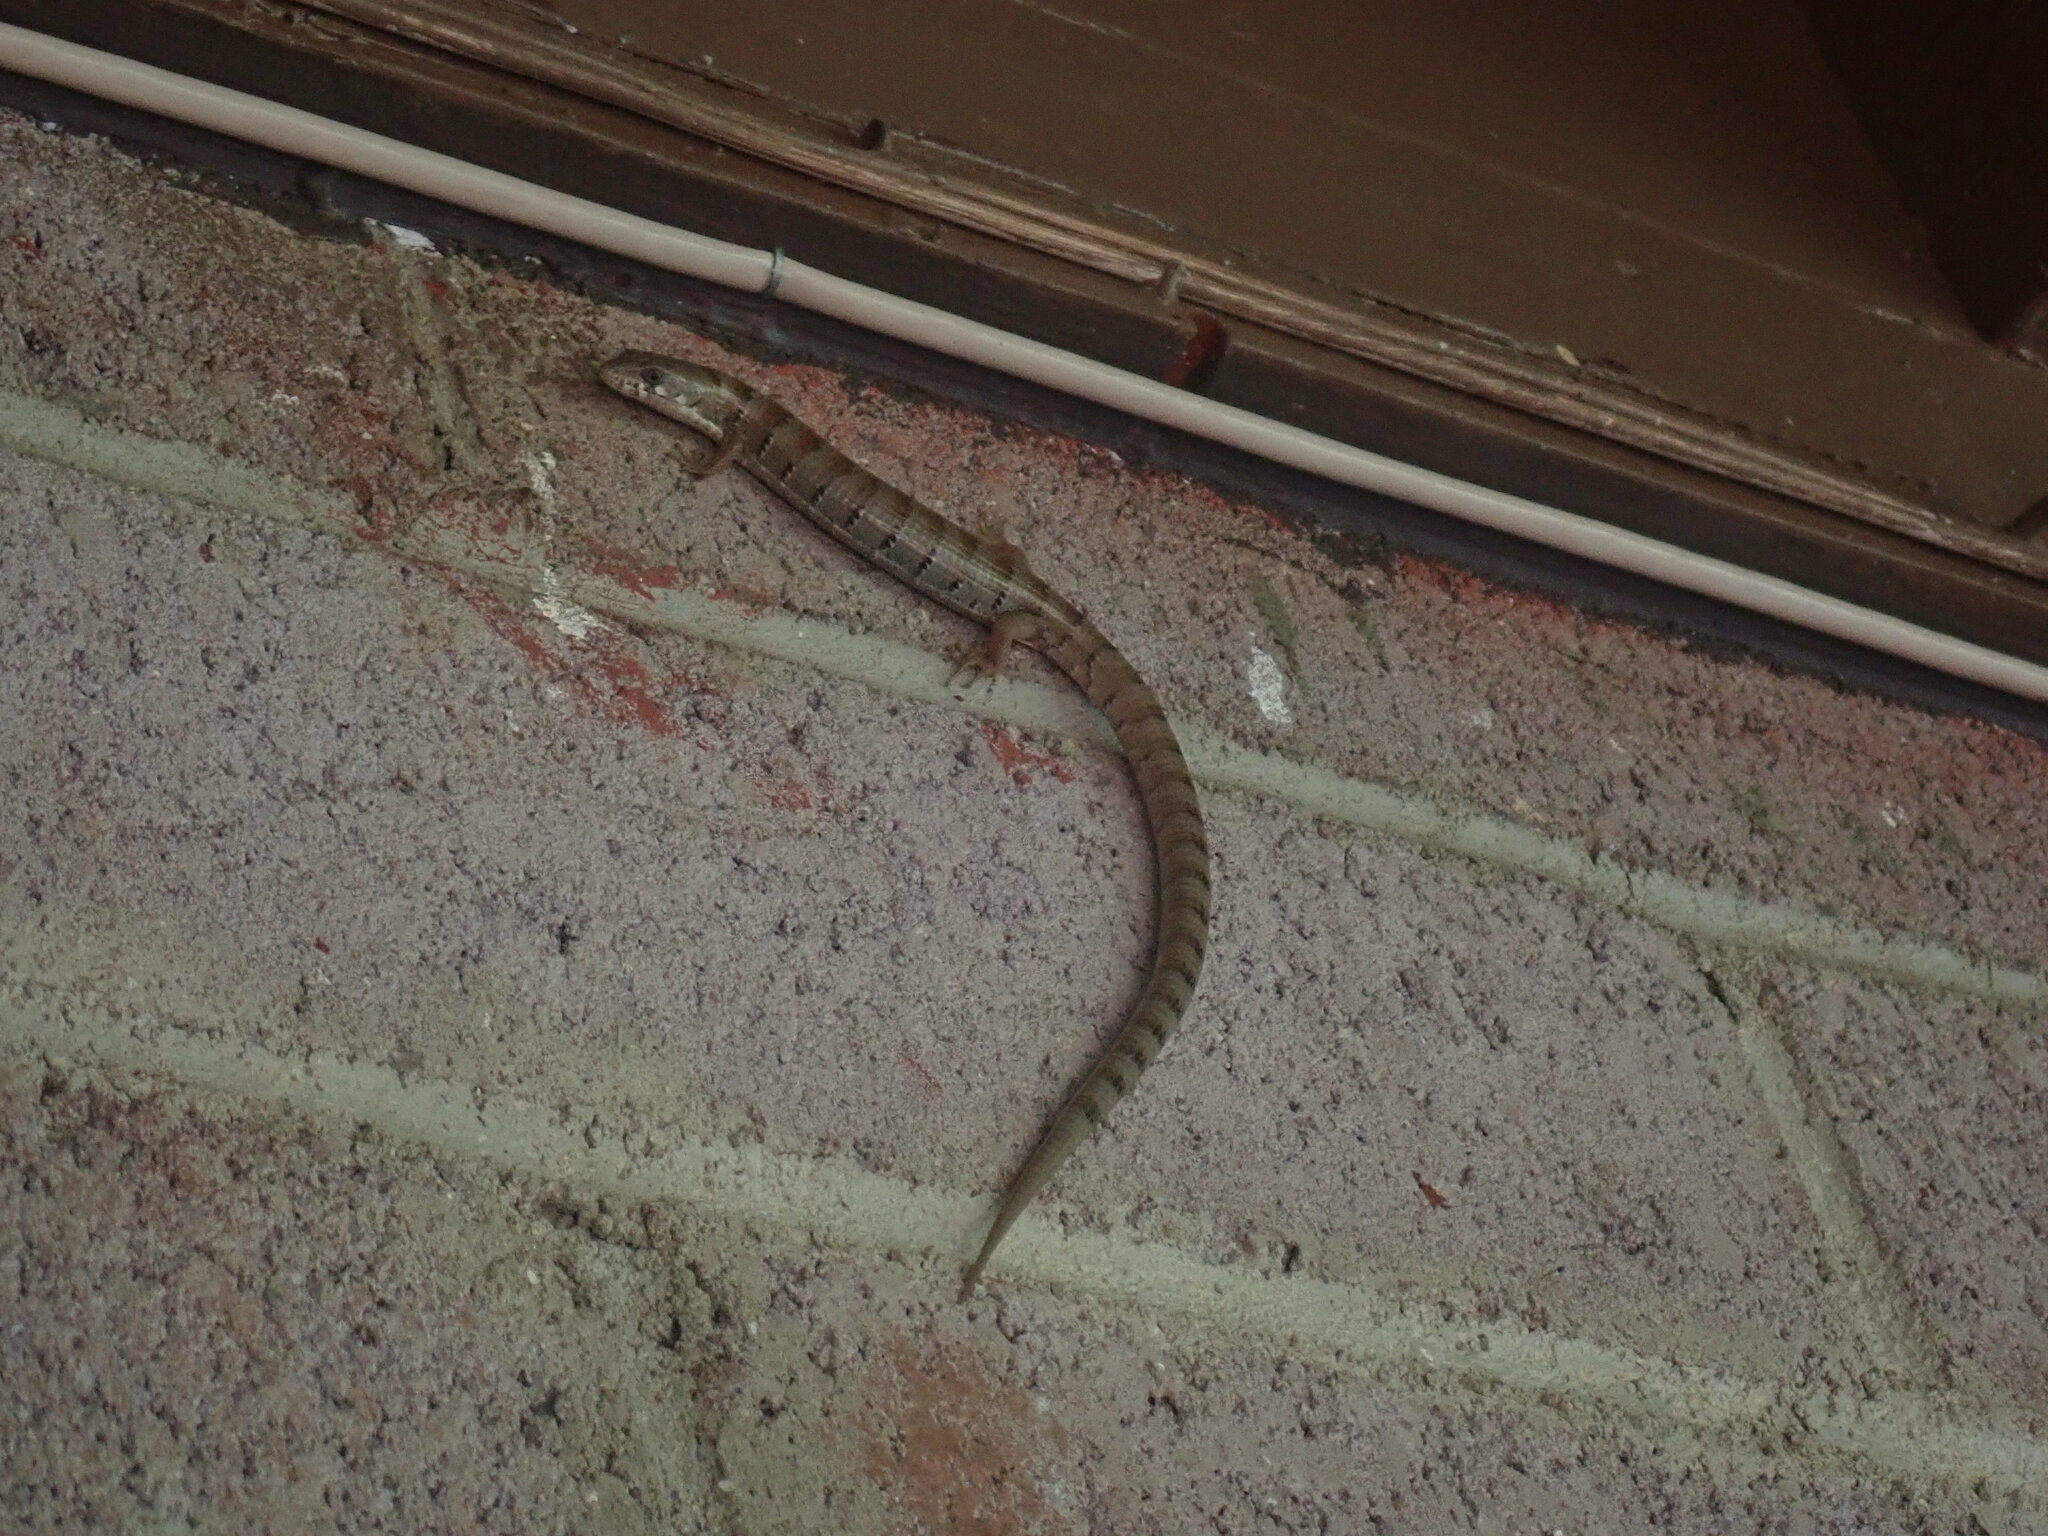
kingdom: Animalia
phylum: Chordata
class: Squamata
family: Anguidae
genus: Elgaria
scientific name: Elgaria kingii
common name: Madrean alligator lizard
